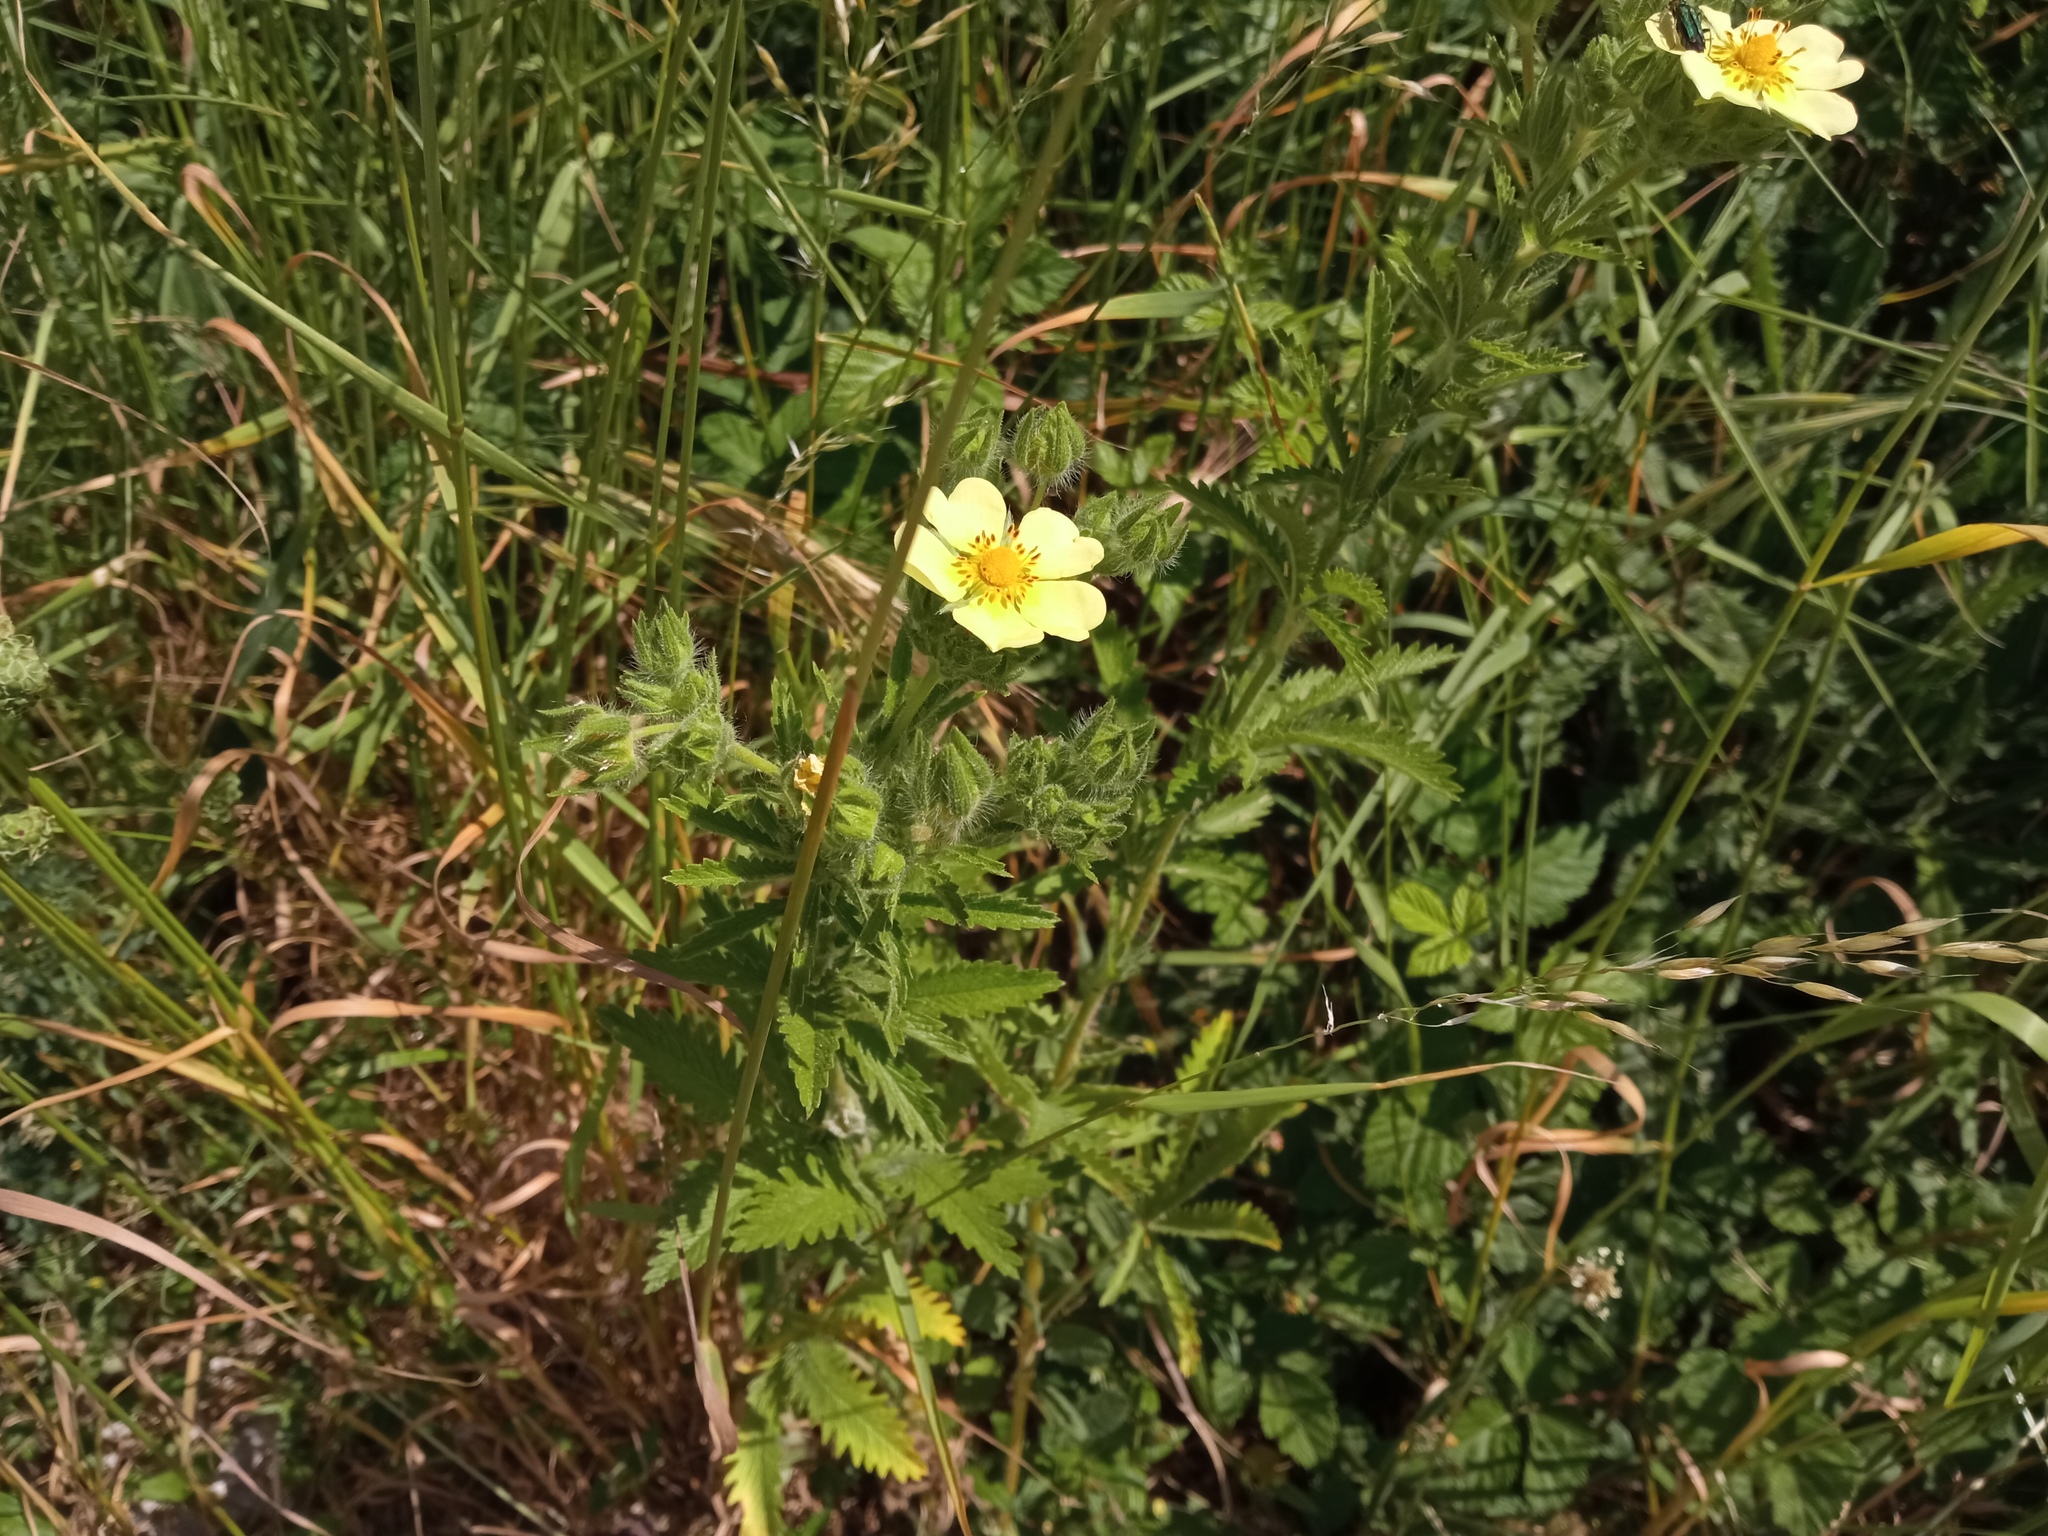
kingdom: Plantae
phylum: Tracheophyta
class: Magnoliopsida
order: Rosales
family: Rosaceae
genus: Potentilla
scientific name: Potentilla recta
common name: Sulphur cinquefoil
